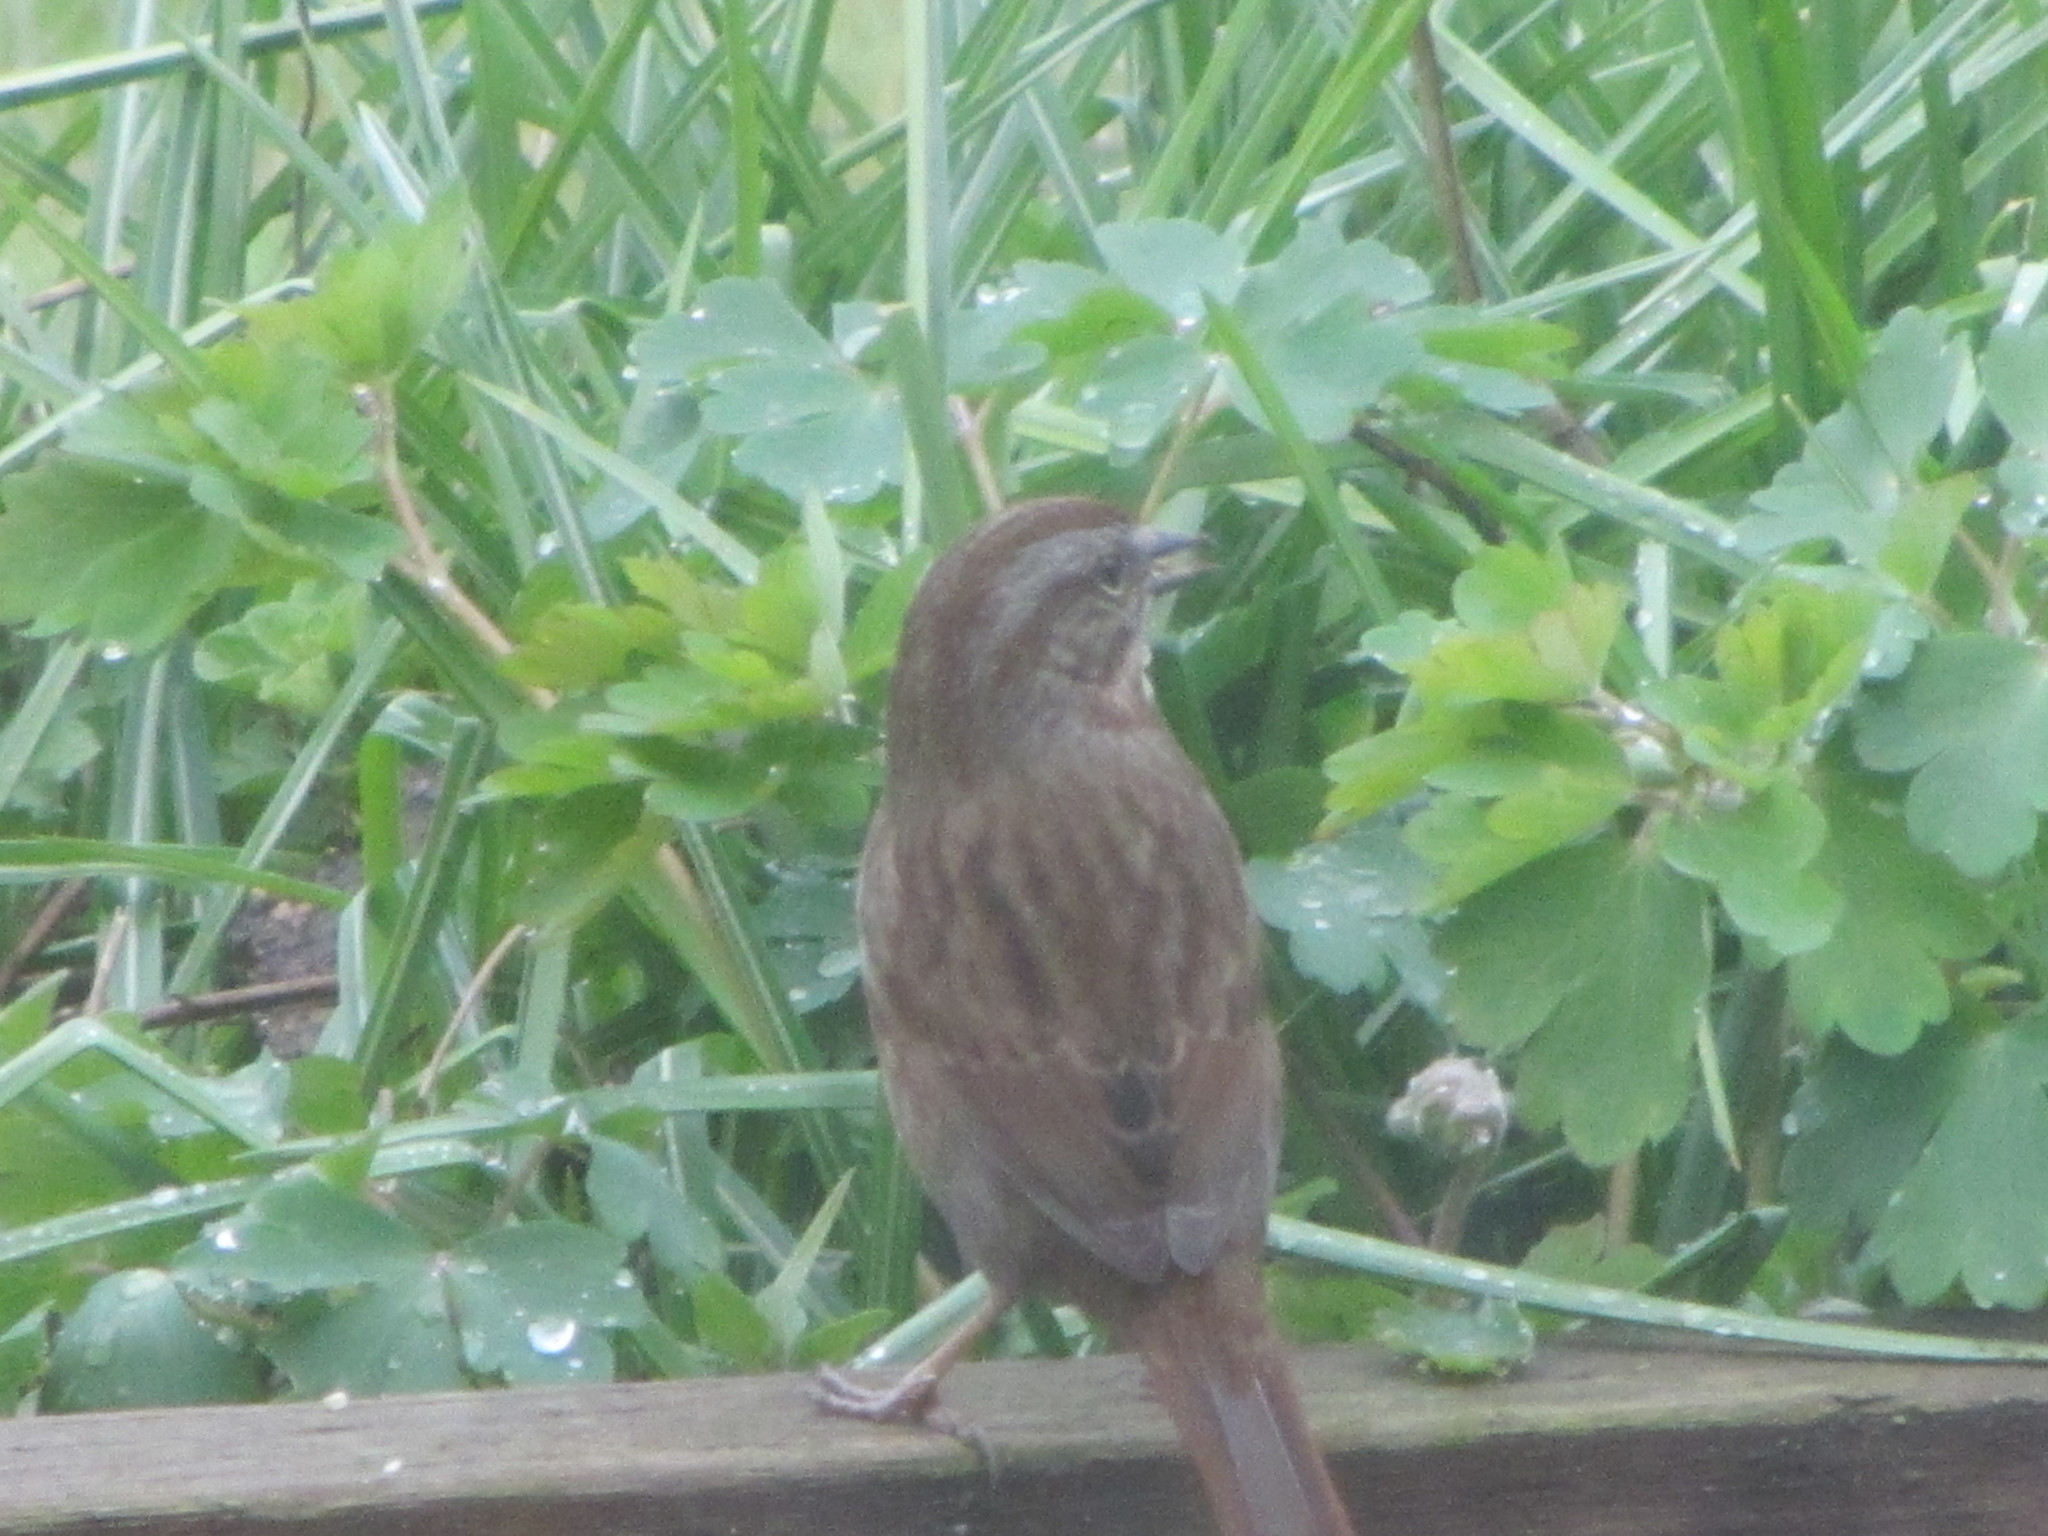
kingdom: Animalia
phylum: Chordata
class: Aves
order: Passeriformes
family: Passerellidae
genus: Melospiza
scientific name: Melospiza melodia
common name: Song sparrow
